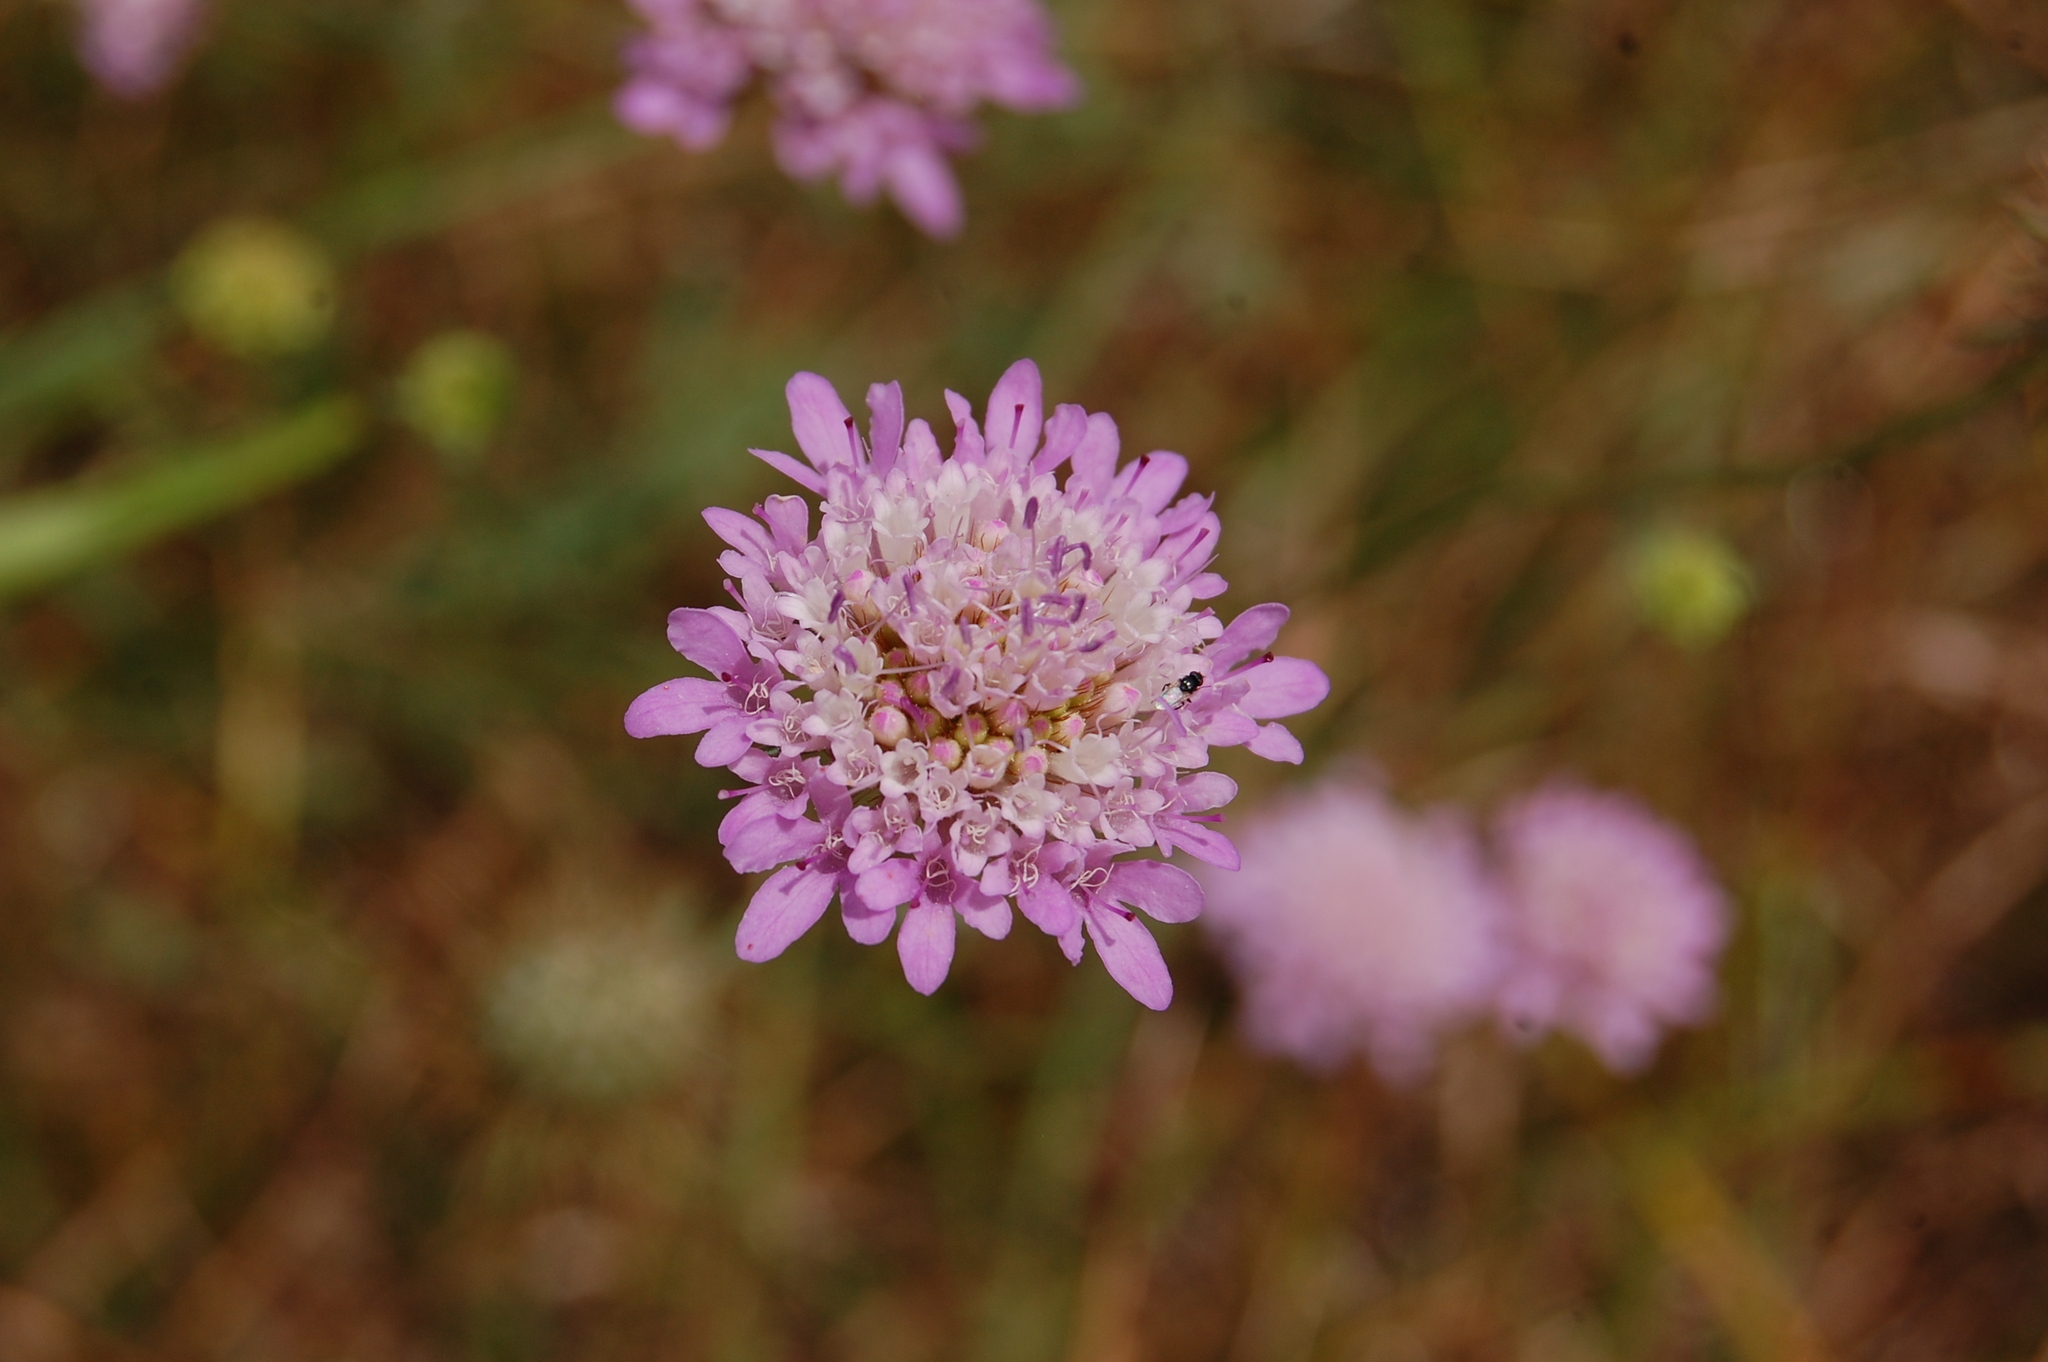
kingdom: Plantae
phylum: Tracheophyta
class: Magnoliopsida
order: Dipsacales
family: Caprifoliaceae
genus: Sixalix
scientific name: Sixalix maritima
